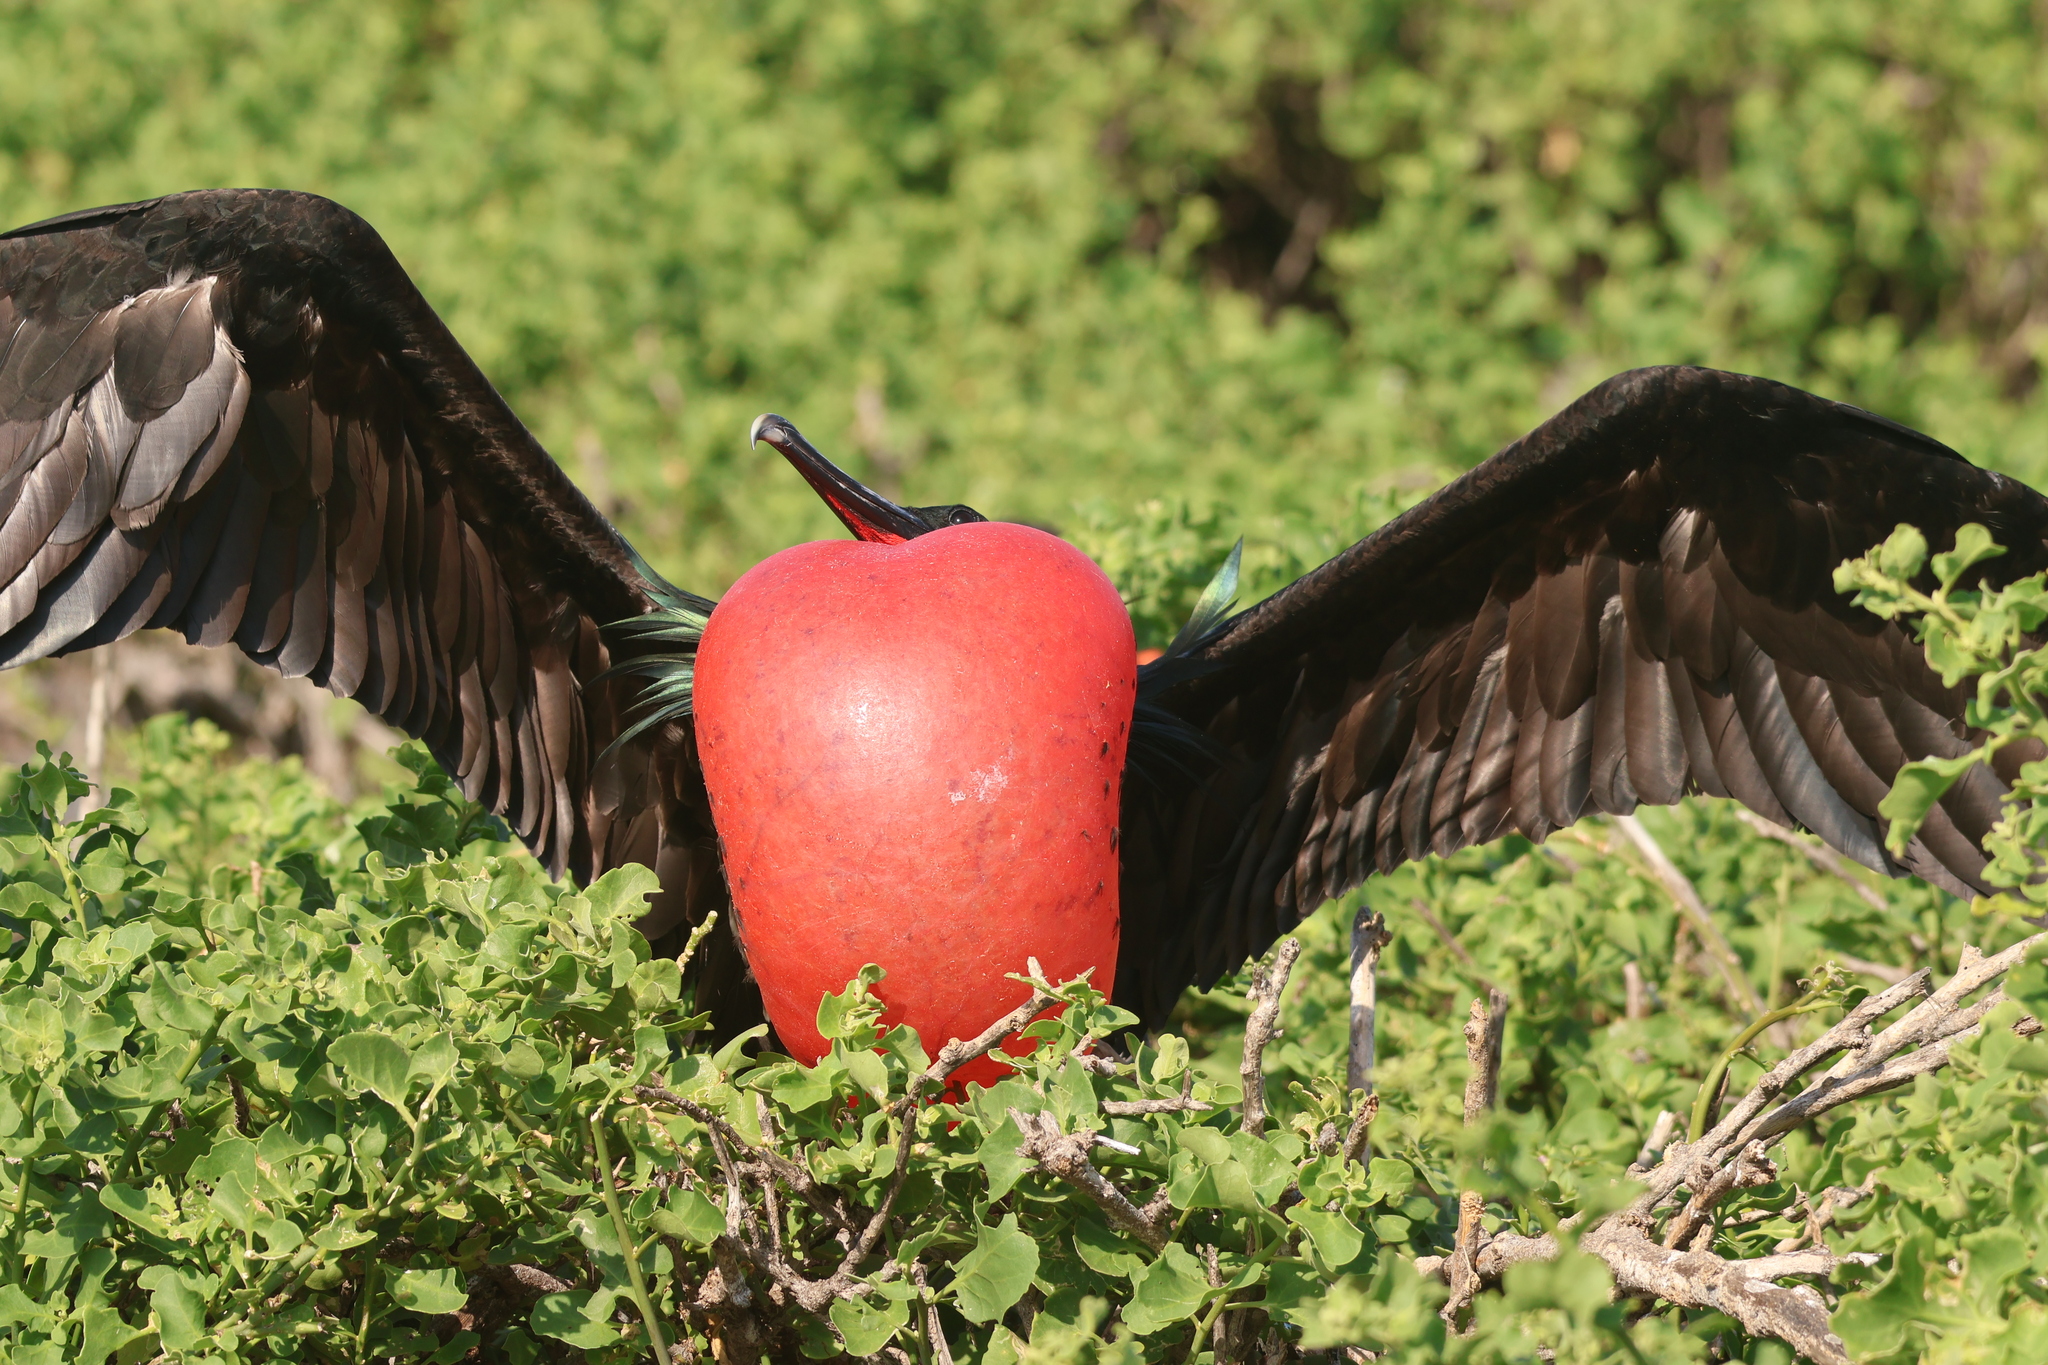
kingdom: Animalia
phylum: Chordata
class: Aves
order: Suliformes
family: Fregatidae
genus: Fregata
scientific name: Fregata minor
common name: Great frigatebird
